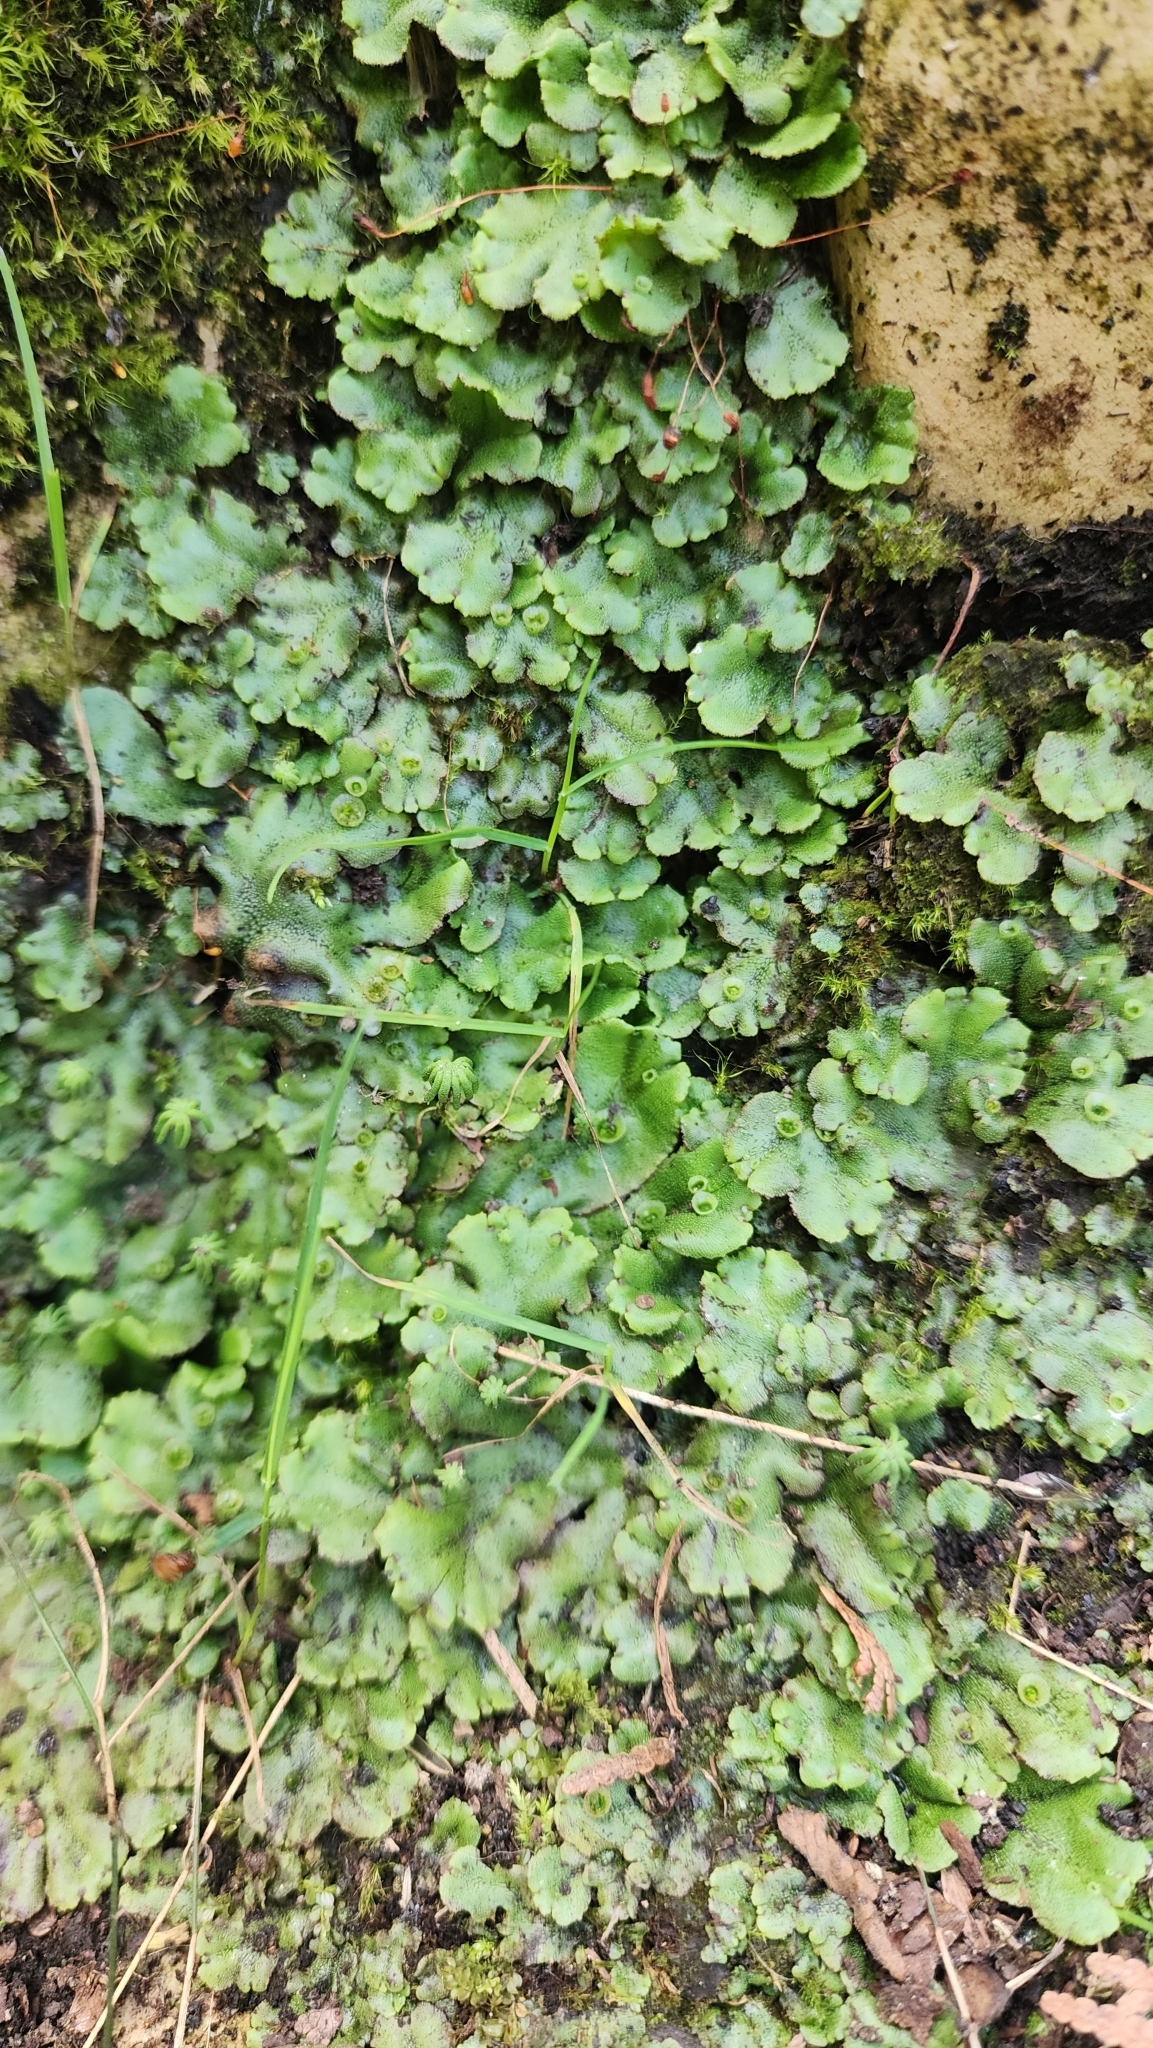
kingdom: Plantae
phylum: Marchantiophyta
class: Marchantiopsida
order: Marchantiales
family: Marchantiaceae
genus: Marchantia
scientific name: Marchantia polymorpha
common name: Common liverwort
